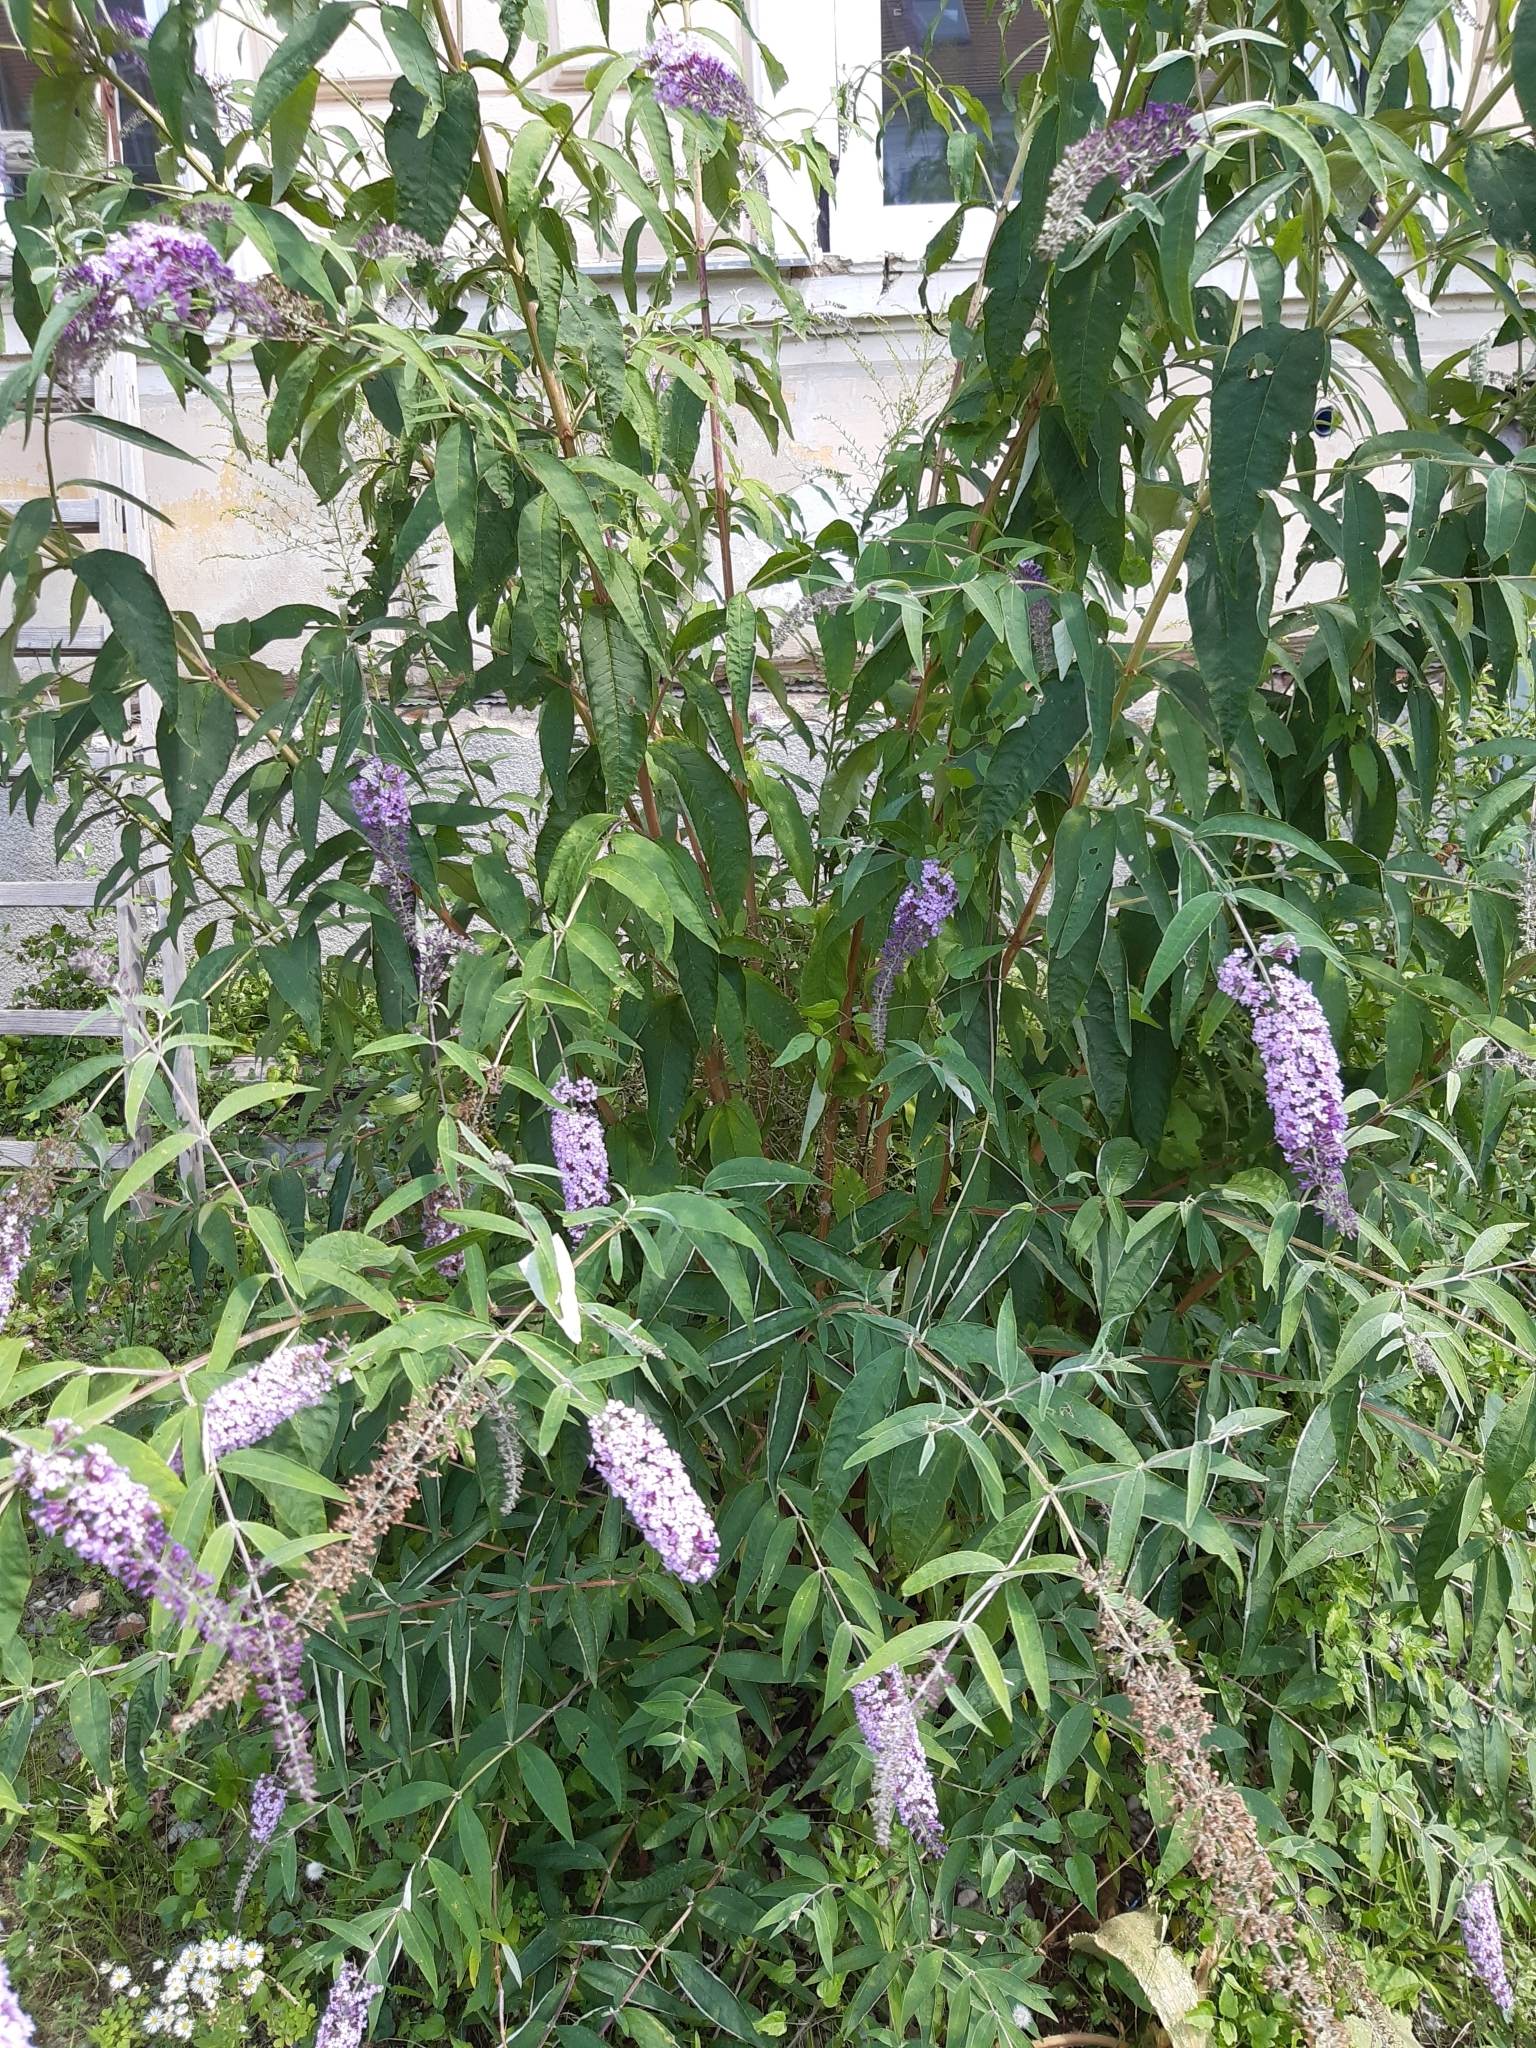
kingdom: Plantae
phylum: Tracheophyta
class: Magnoliopsida
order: Lamiales
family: Scrophulariaceae
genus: Buddleja
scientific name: Buddleja davidii
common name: Butterfly-bush
